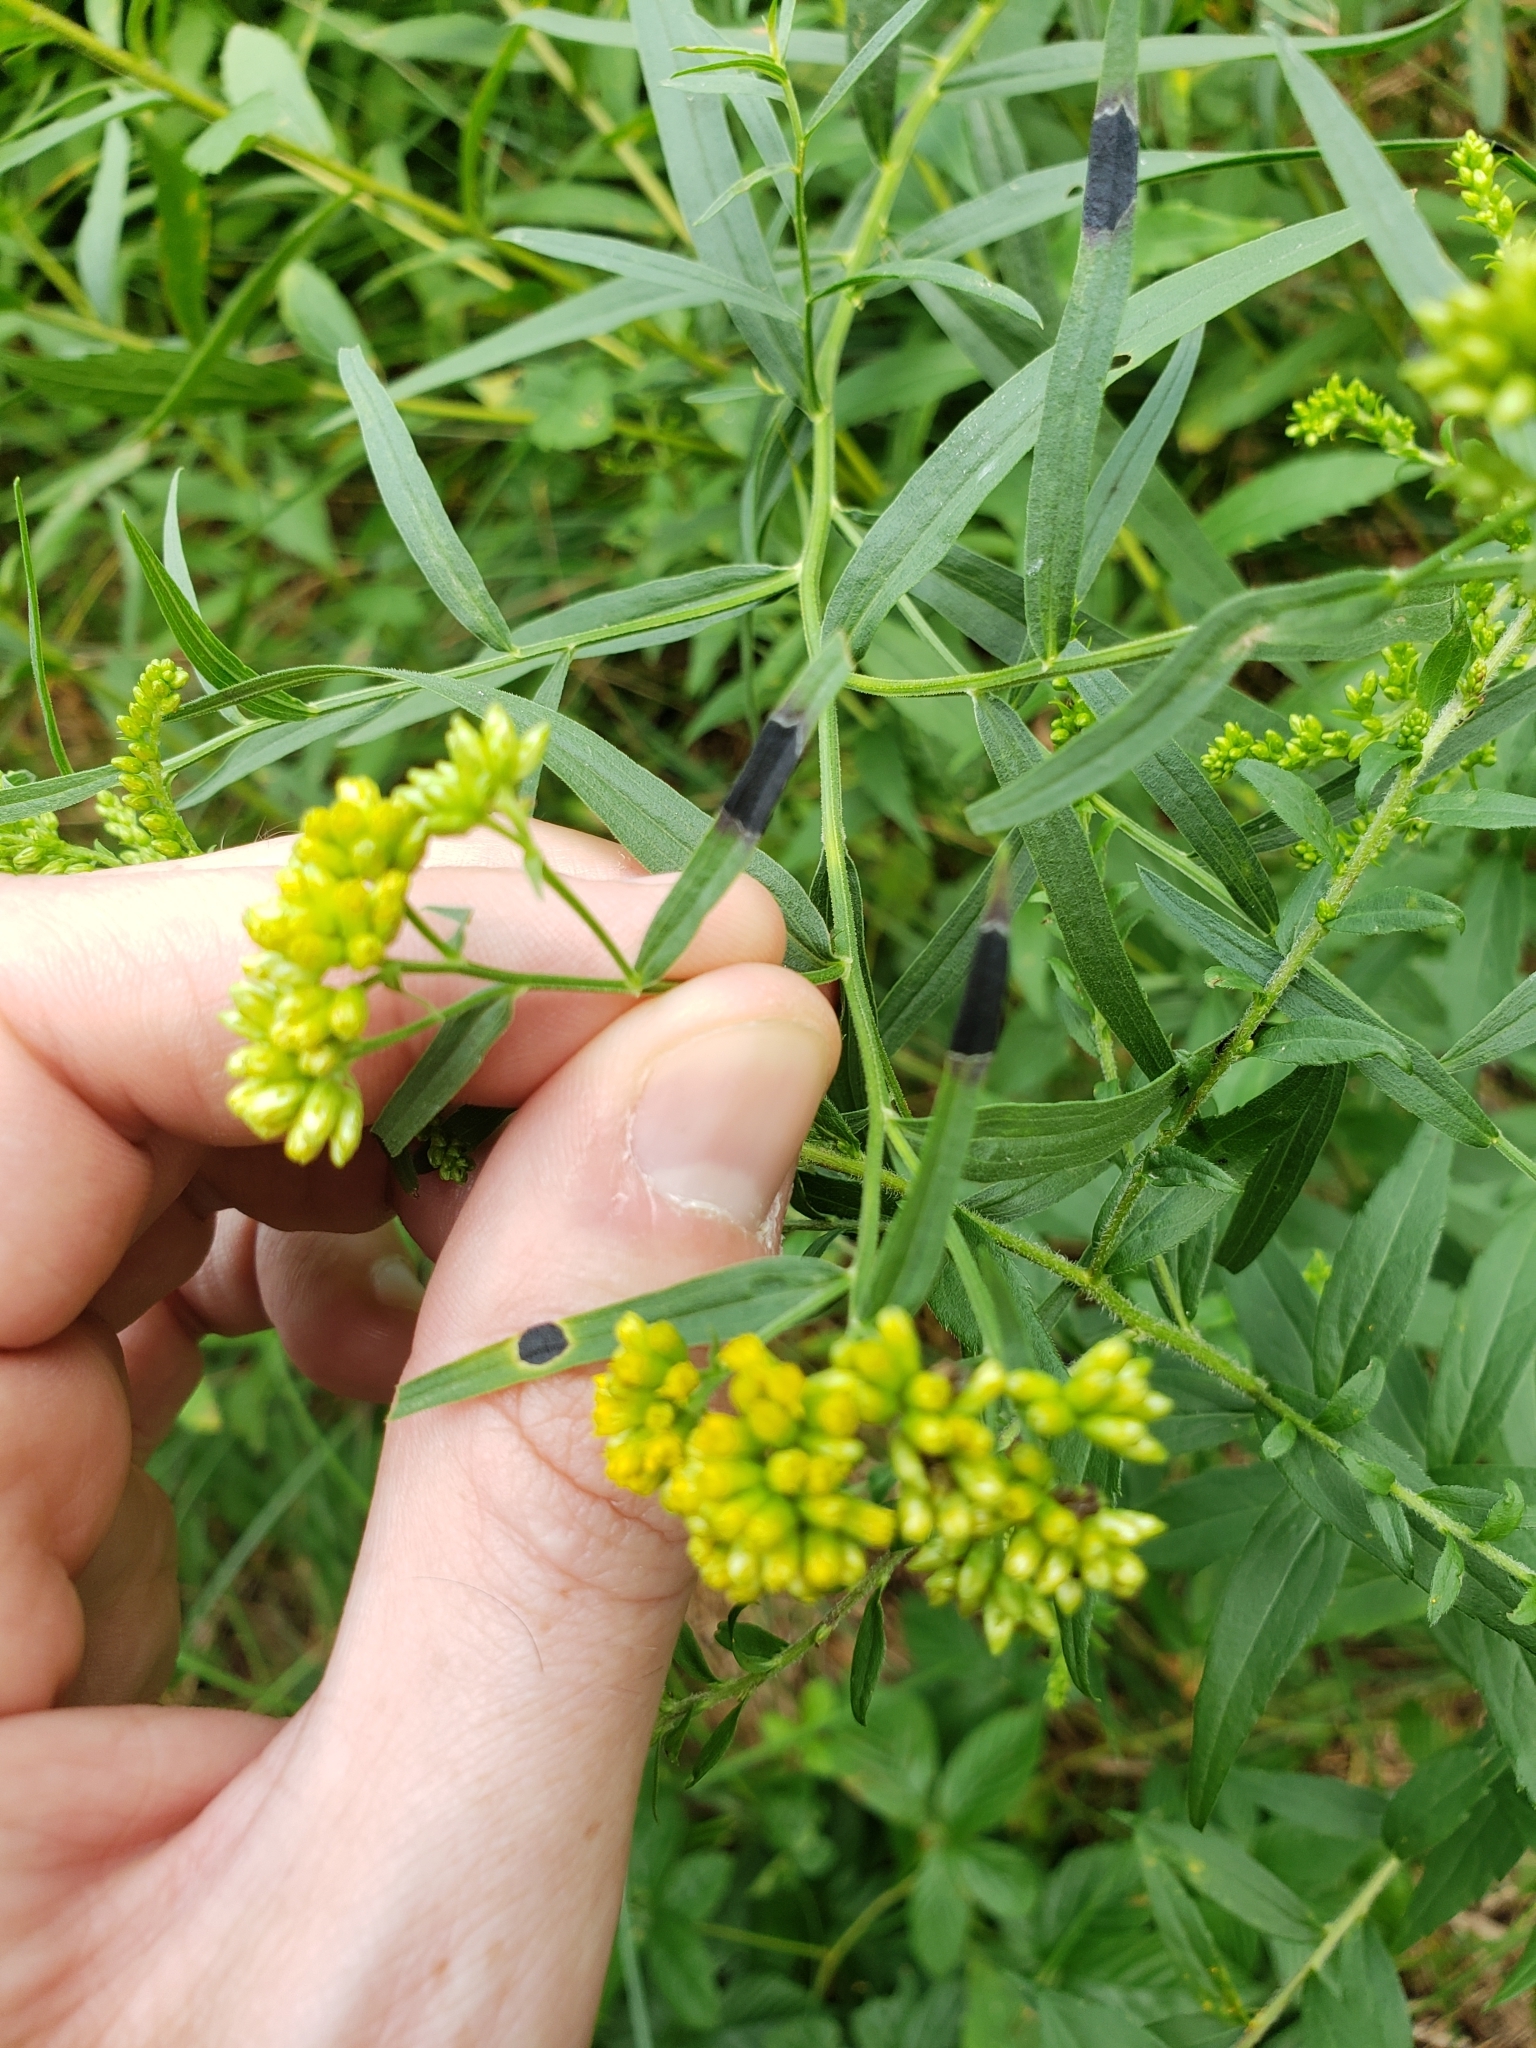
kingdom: Animalia
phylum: Arthropoda
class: Insecta
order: Diptera
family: Cecidomyiidae
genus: Asteromyia
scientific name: Asteromyia euthamiae
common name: Euthamia leaf gall midge
